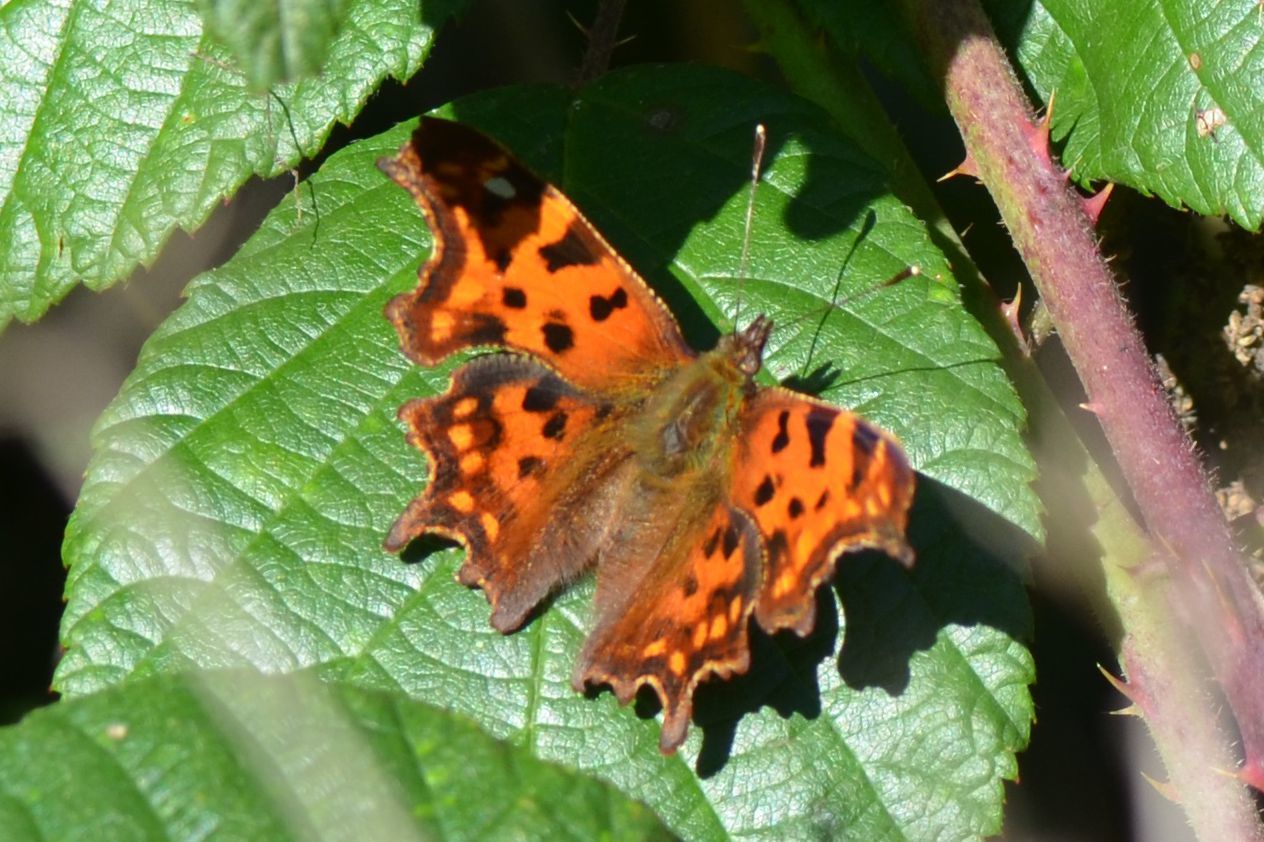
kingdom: Animalia
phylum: Arthropoda
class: Insecta
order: Lepidoptera
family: Nymphalidae
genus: Polygonia
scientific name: Polygonia c-album
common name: Comma
